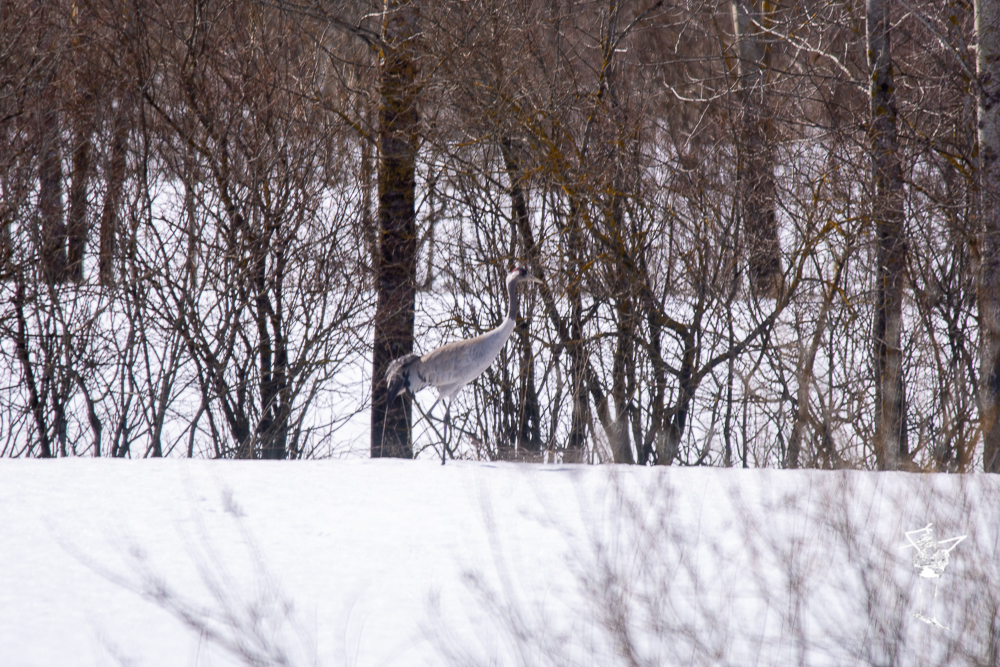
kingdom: Animalia
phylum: Chordata
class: Aves
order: Gruiformes
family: Gruidae
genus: Grus
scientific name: Grus grus
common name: Common crane
